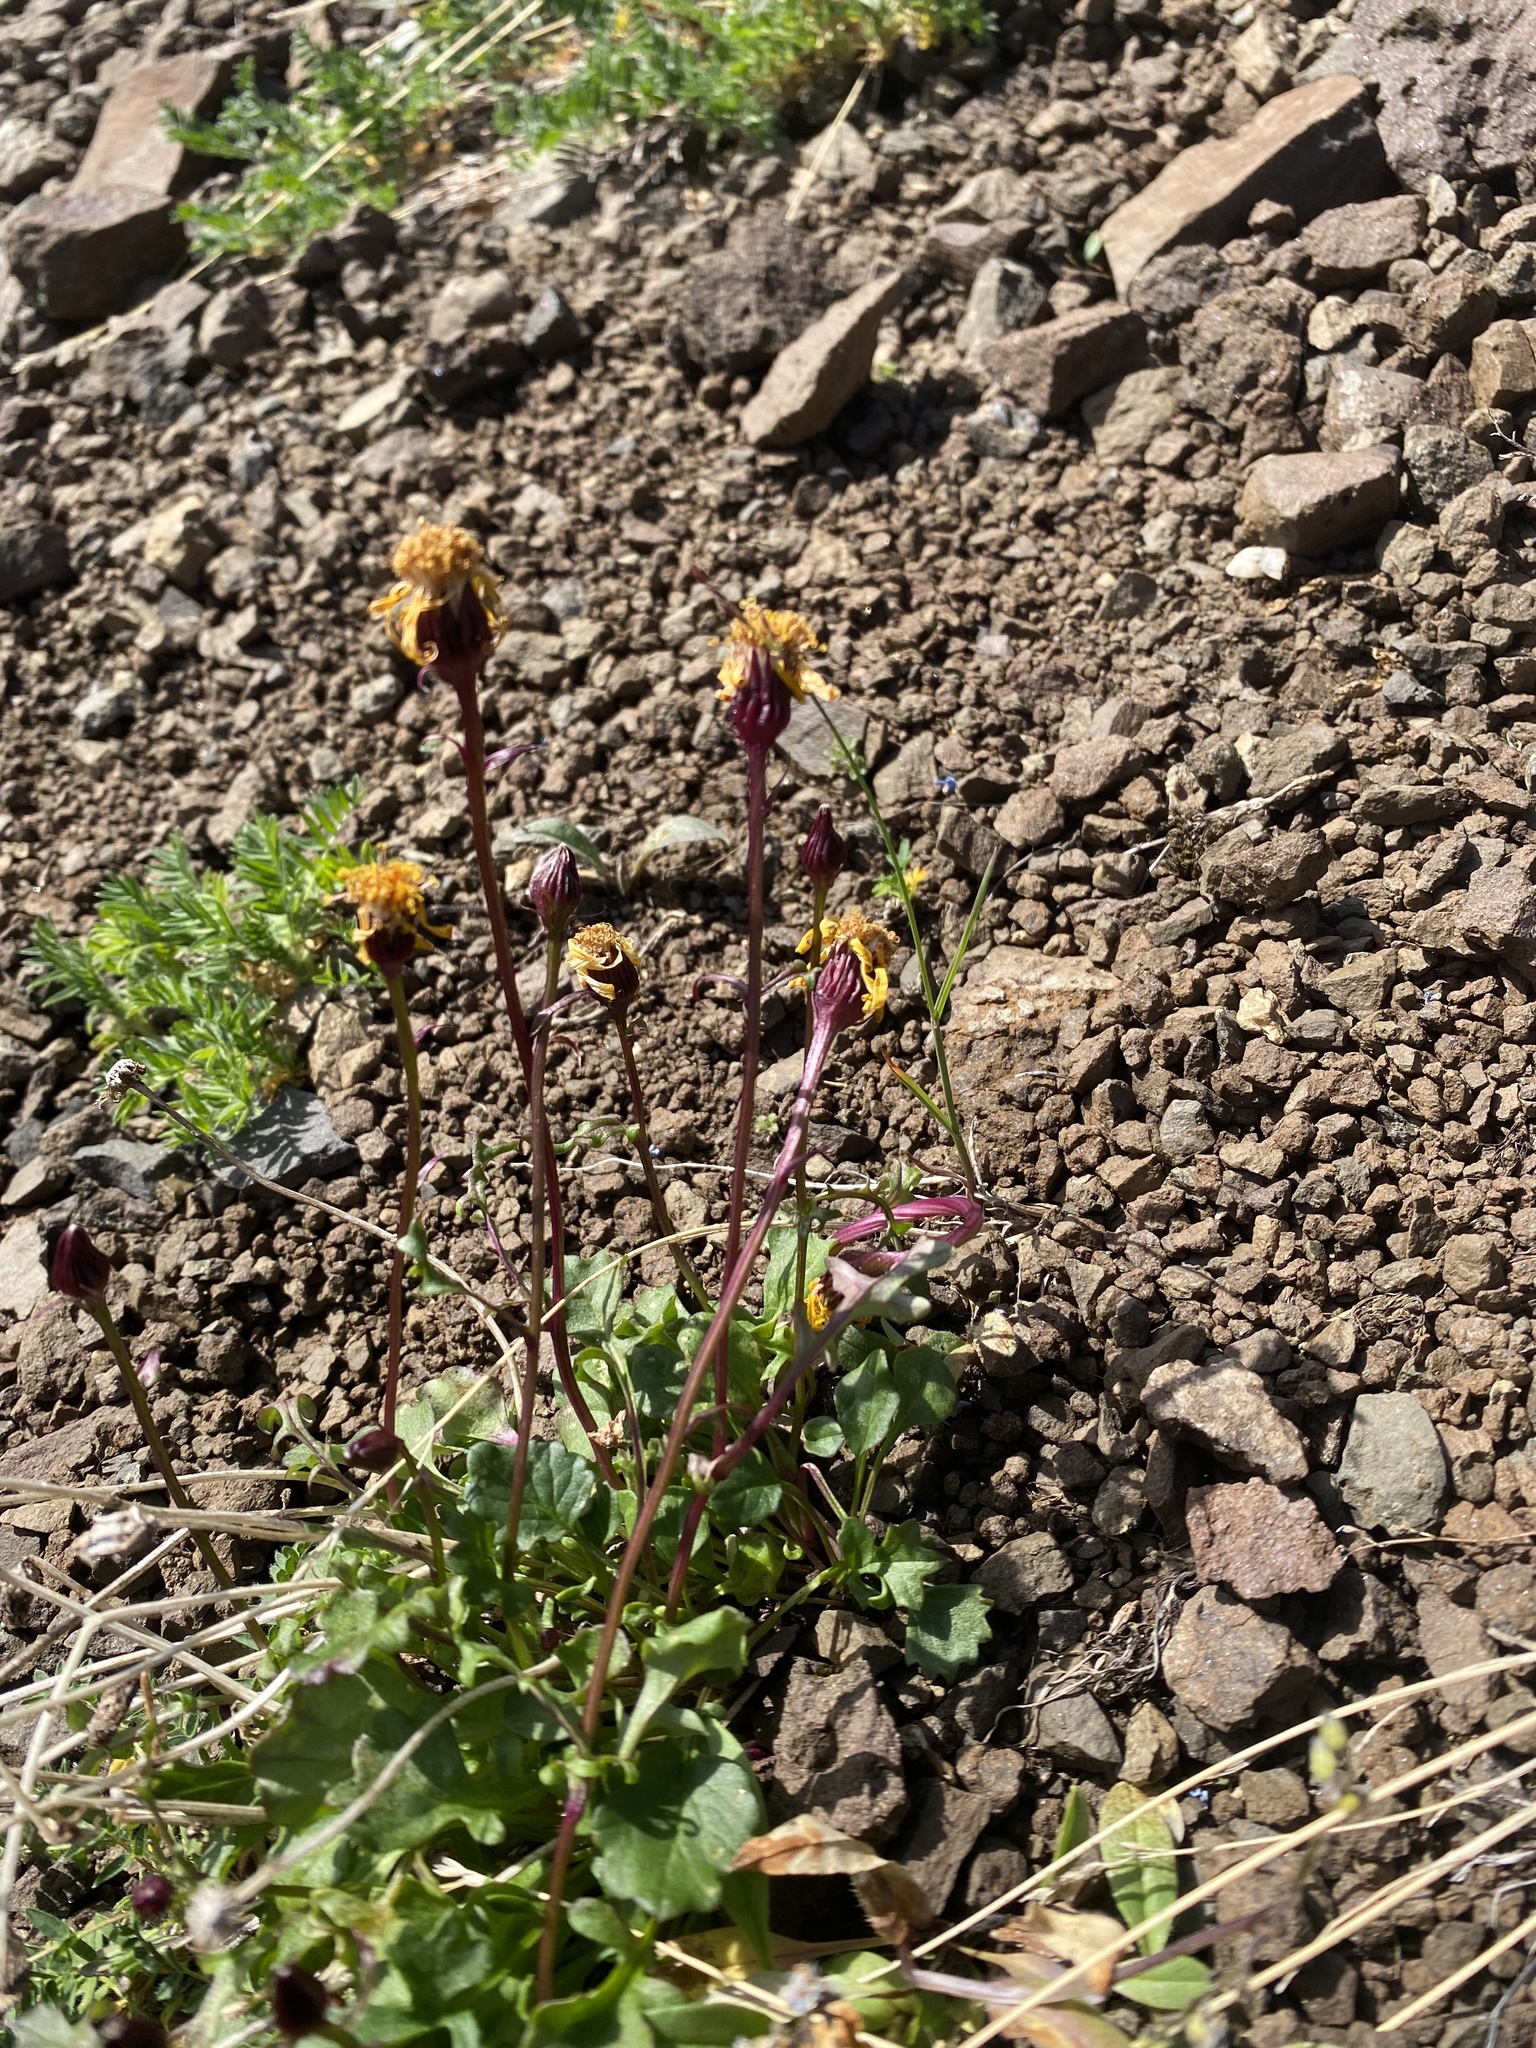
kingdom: Plantae
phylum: Tracheophyta
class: Magnoliopsida
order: Asterales
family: Asteraceae
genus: Packera
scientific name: Packera heterophylla
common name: Arctic butterweed
